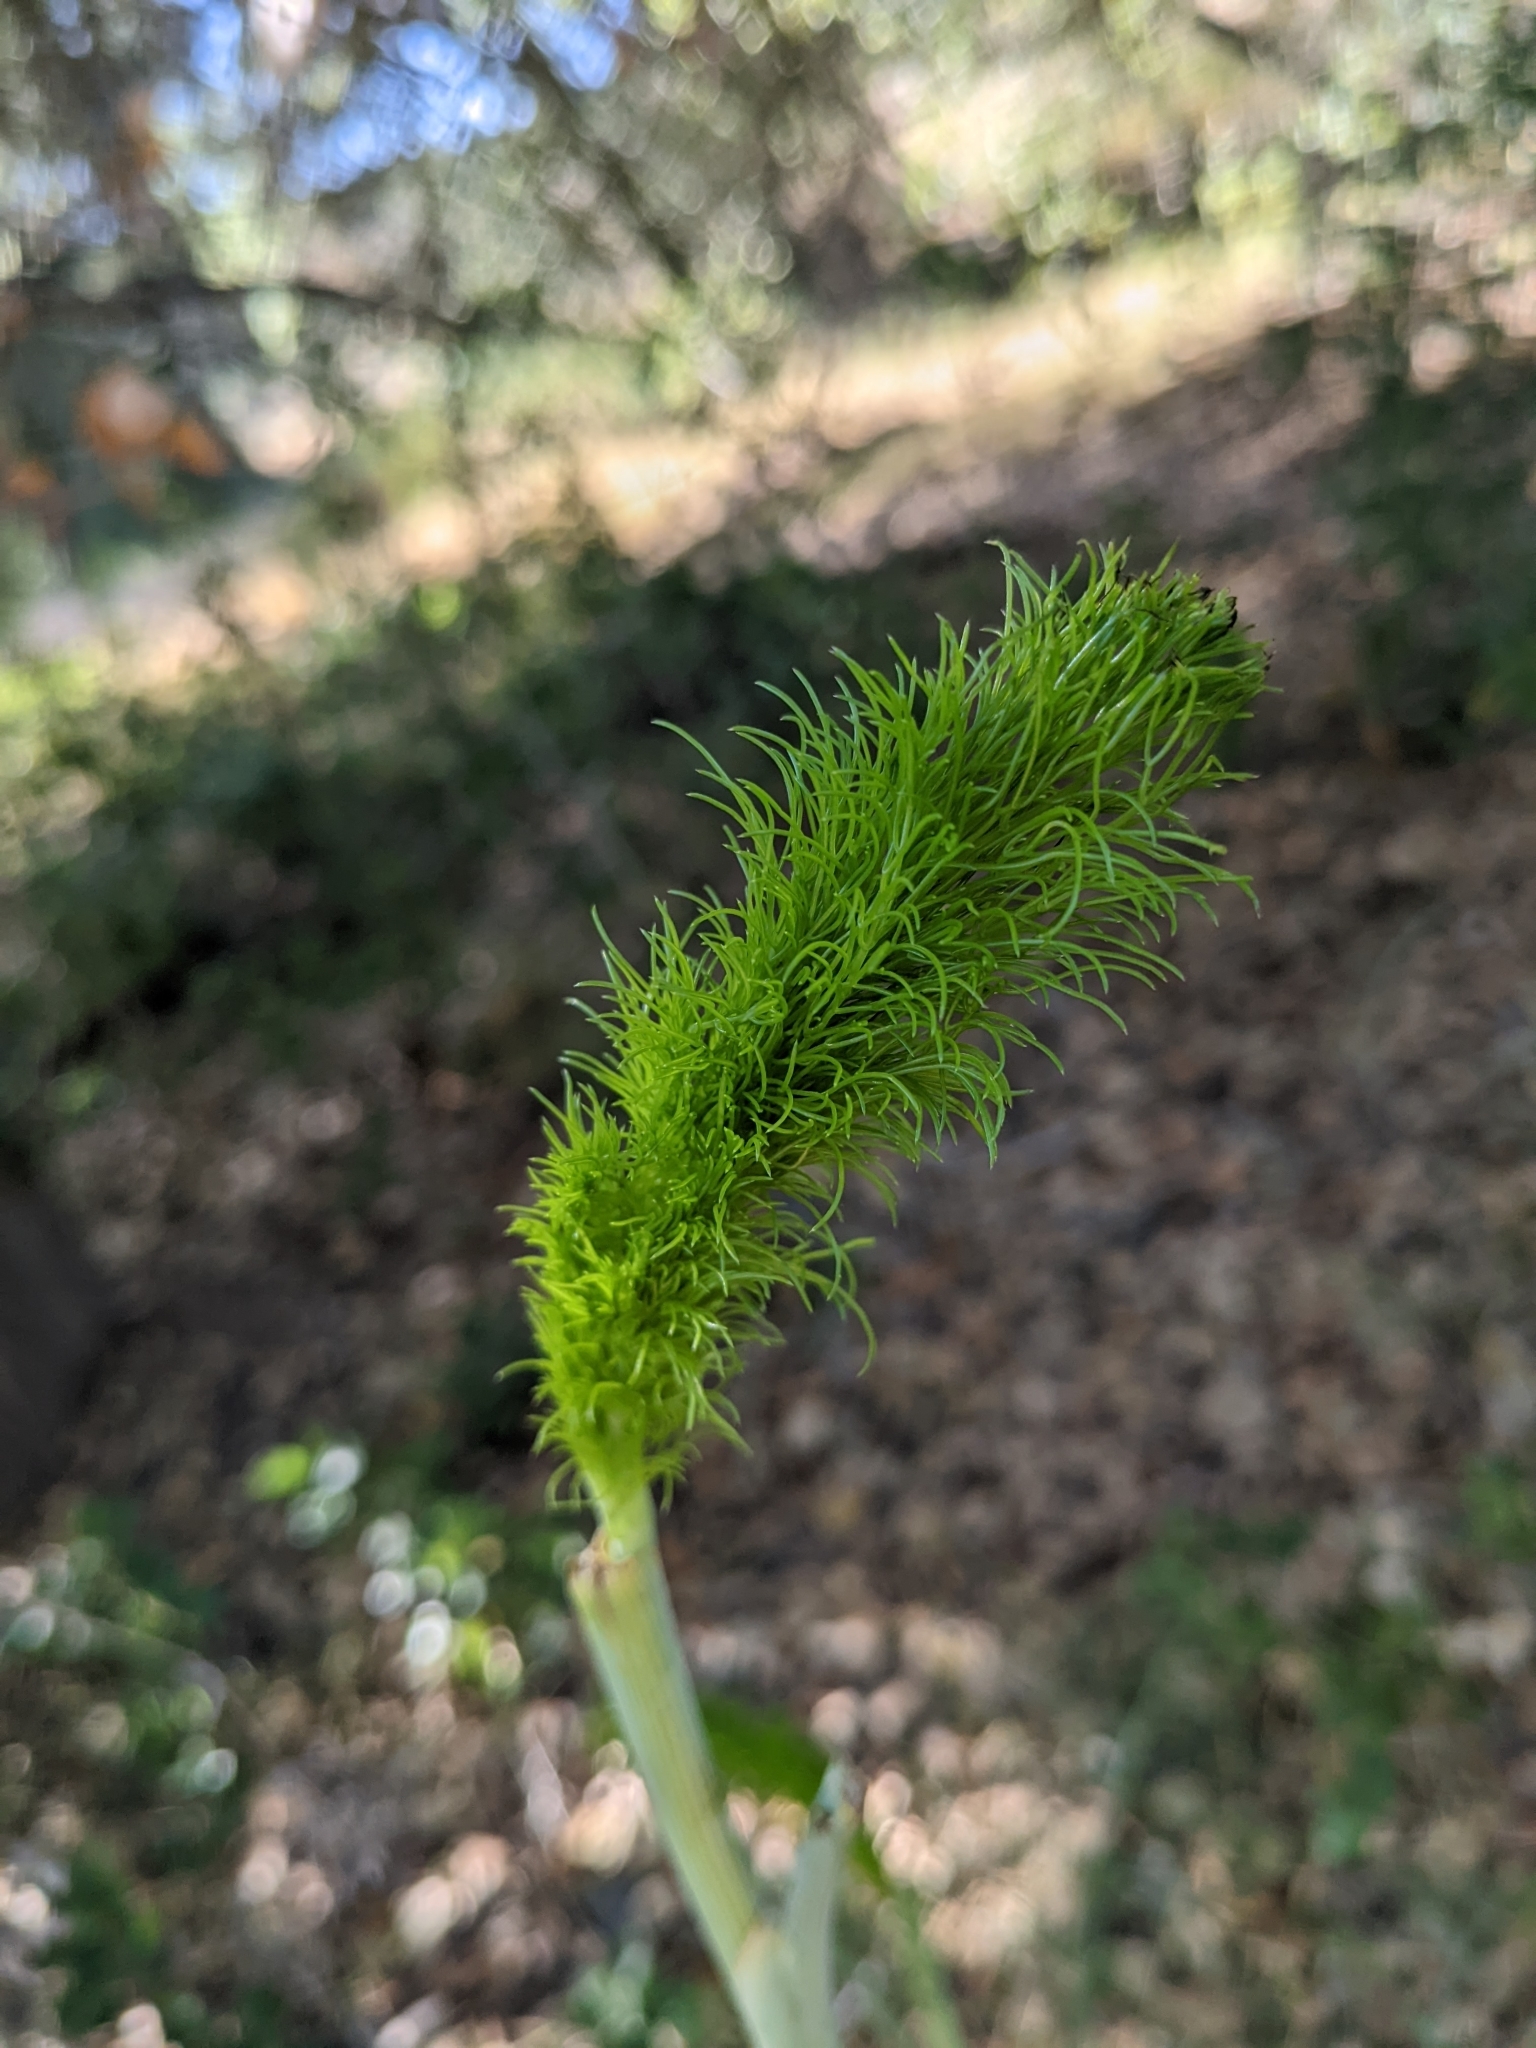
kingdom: Plantae
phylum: Tracheophyta
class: Magnoliopsida
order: Apiales
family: Apiaceae
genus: Foeniculum
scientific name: Foeniculum vulgare
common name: Fennel
